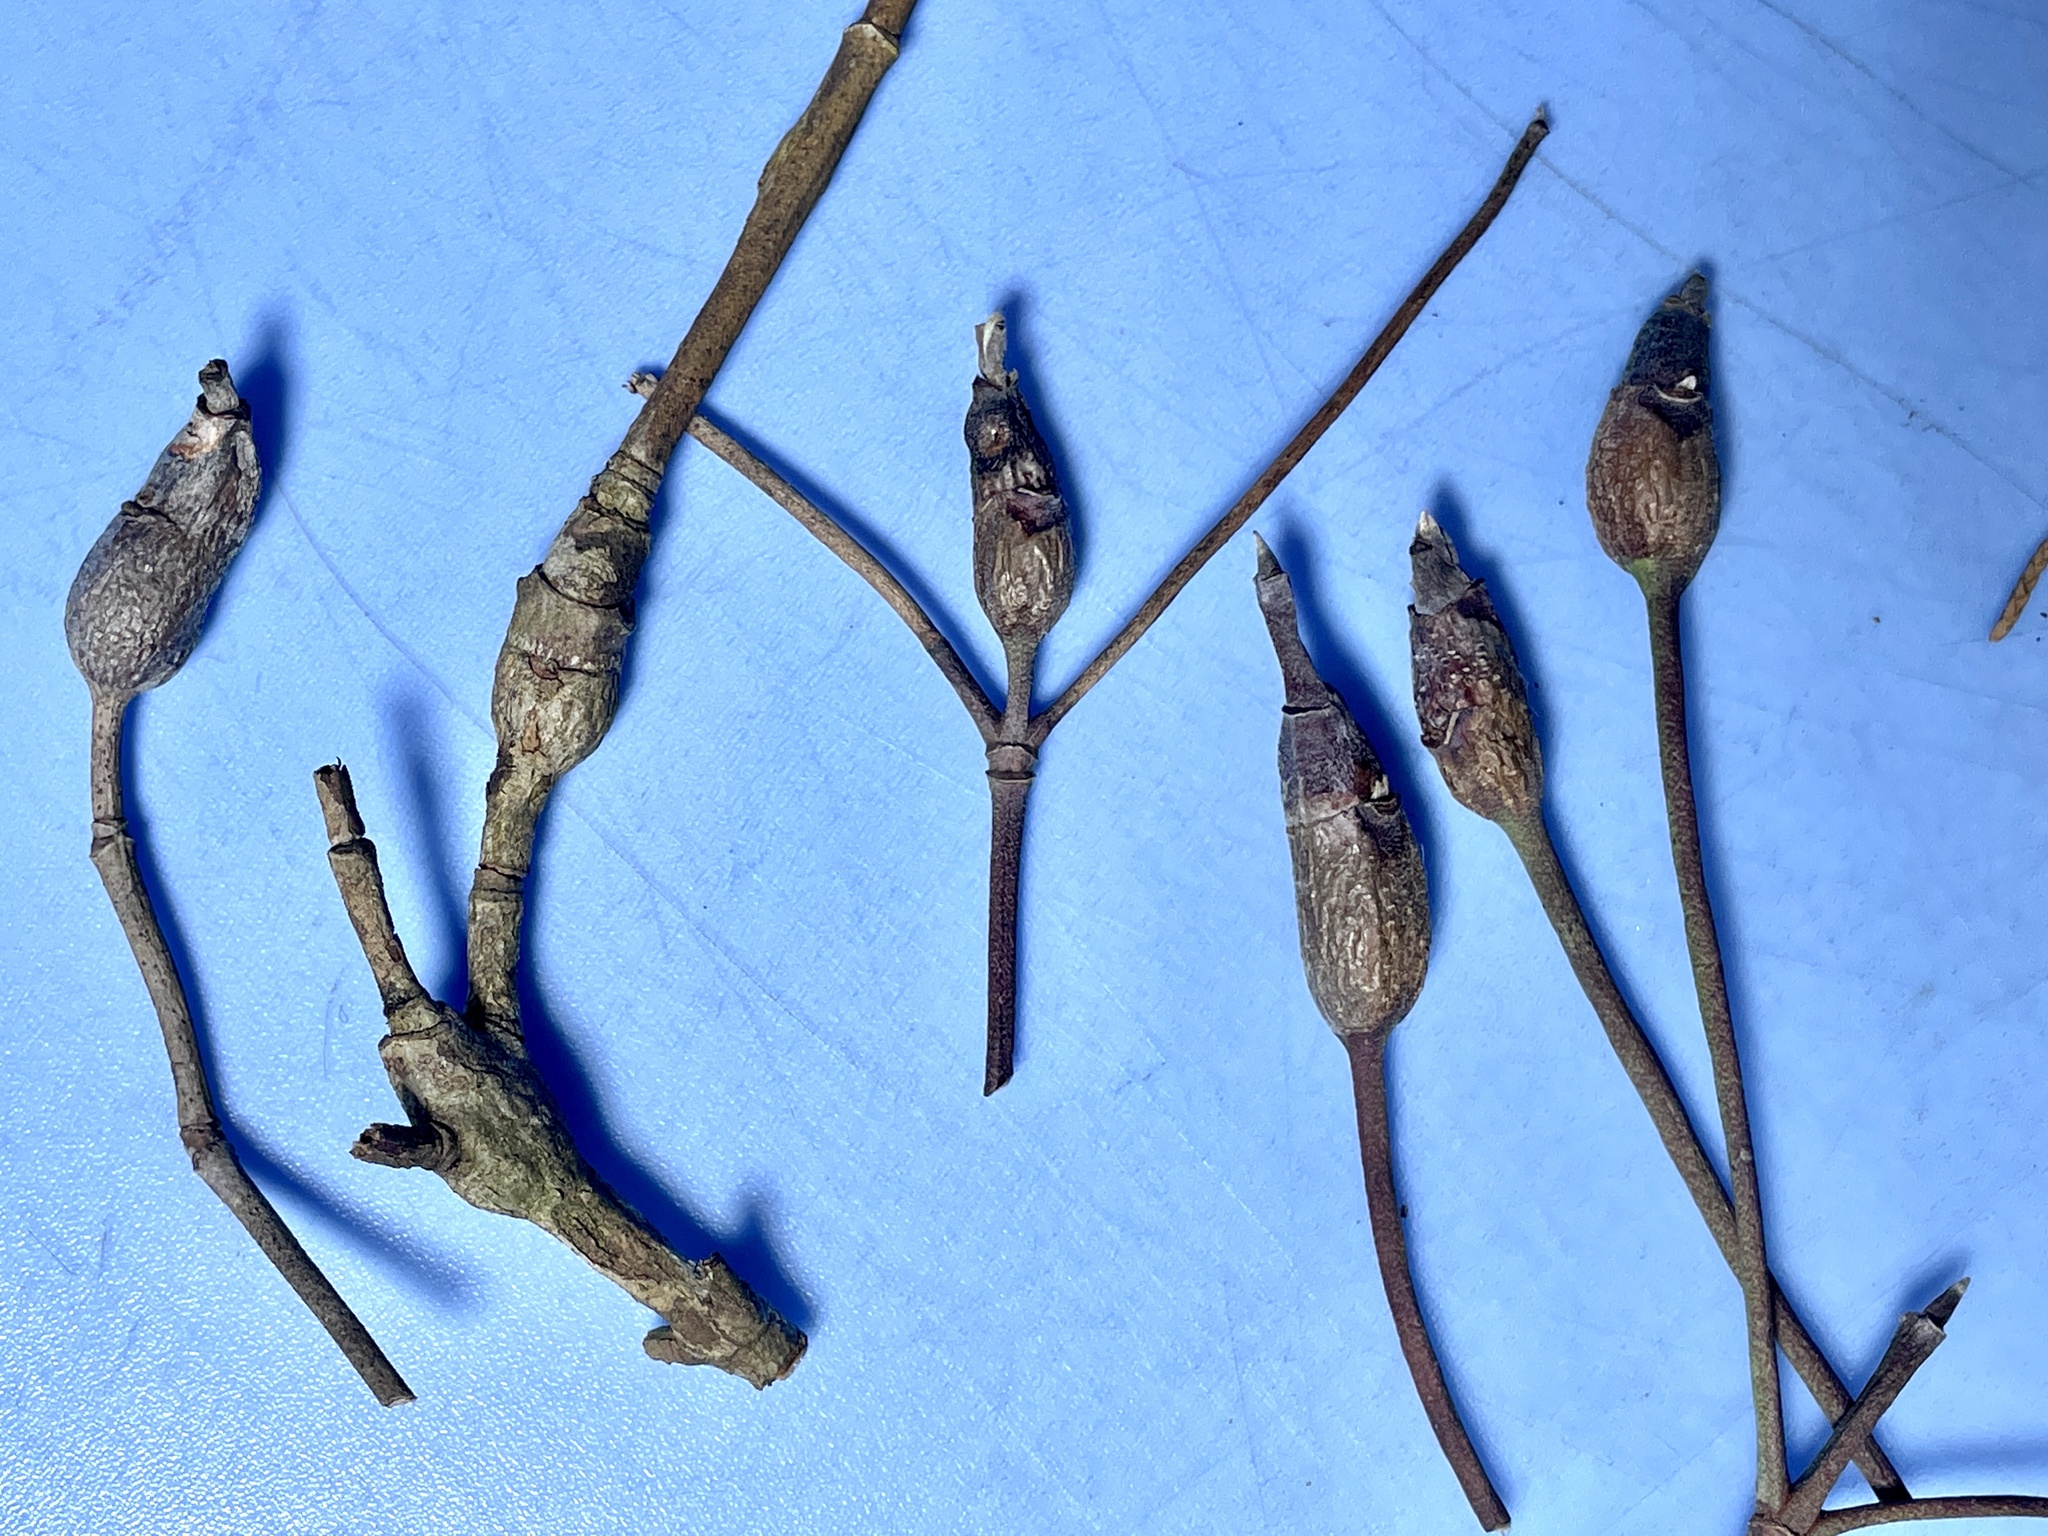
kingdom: Animalia
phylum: Arthropoda
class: Insecta
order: Diptera
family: Cecidomyiidae
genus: Resseliella
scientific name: Resseliella clavula
